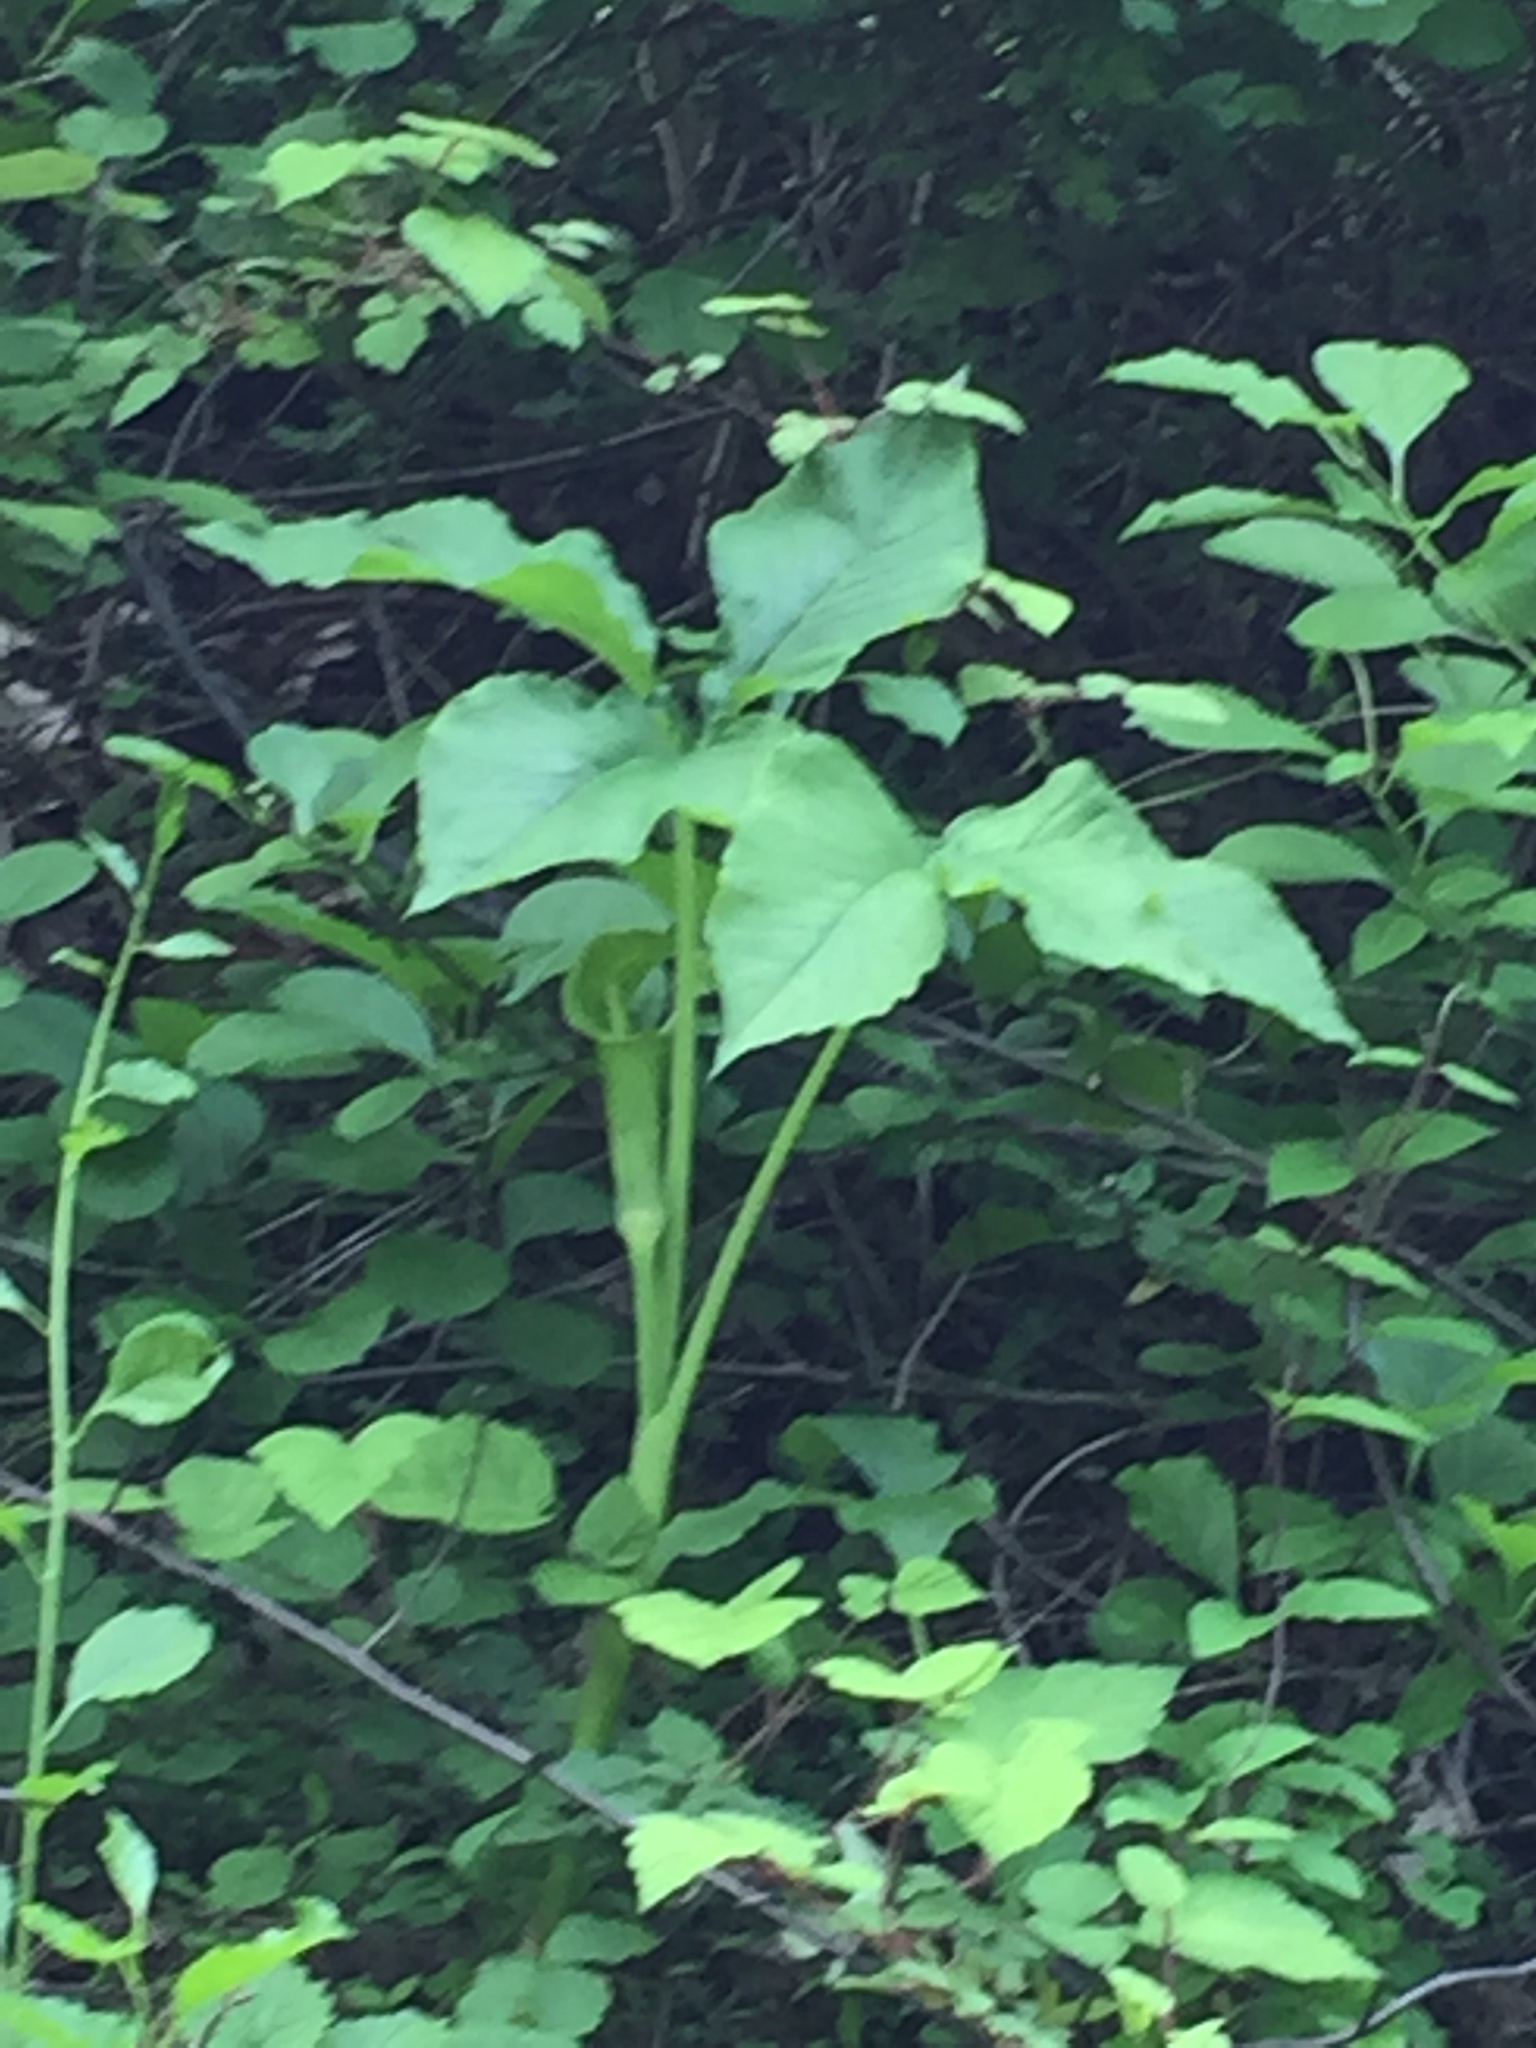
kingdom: Plantae
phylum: Tracheophyta
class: Liliopsida
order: Alismatales
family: Araceae
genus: Arisaema
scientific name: Arisaema triphyllum
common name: Jack-in-the-pulpit
